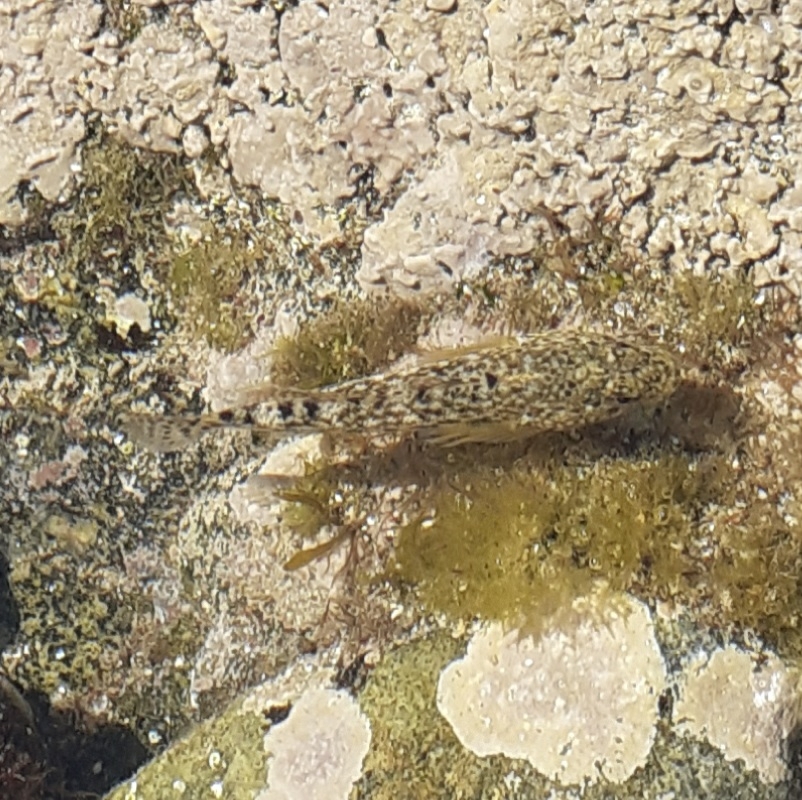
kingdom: Animalia
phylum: Chordata
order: Perciformes
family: Gobiidae
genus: Gobius
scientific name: Gobius cobitis
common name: Giant goby
